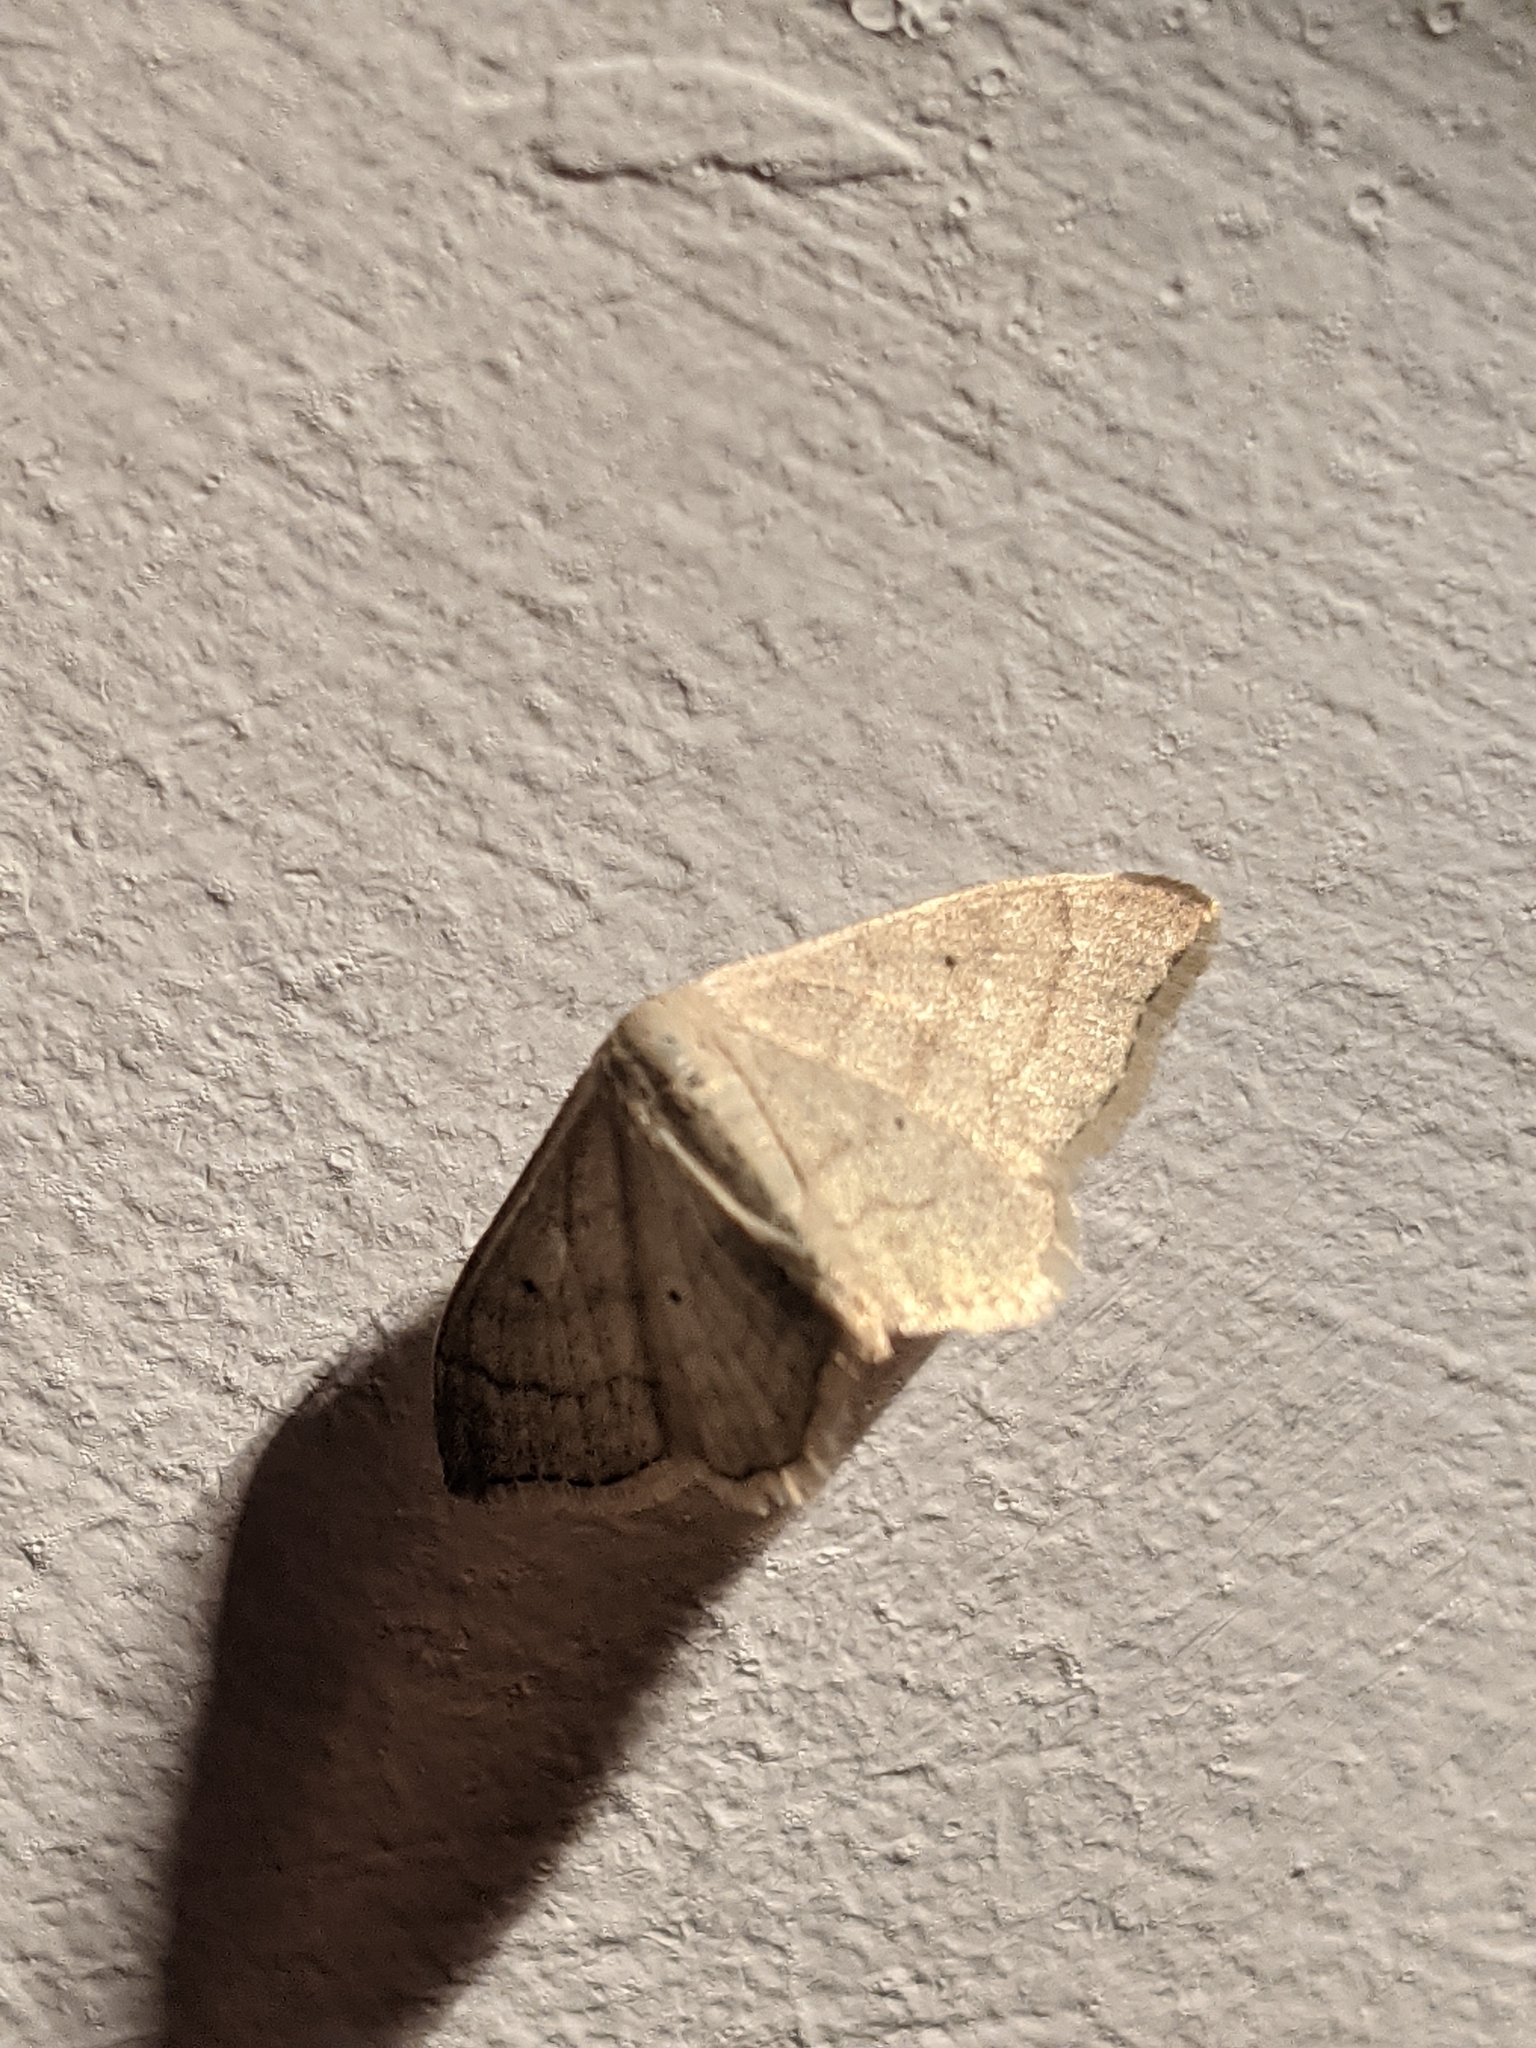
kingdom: Animalia
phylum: Arthropoda
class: Insecta
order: Lepidoptera
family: Geometridae
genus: Idaea
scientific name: Idaea straminata
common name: Plain wave
